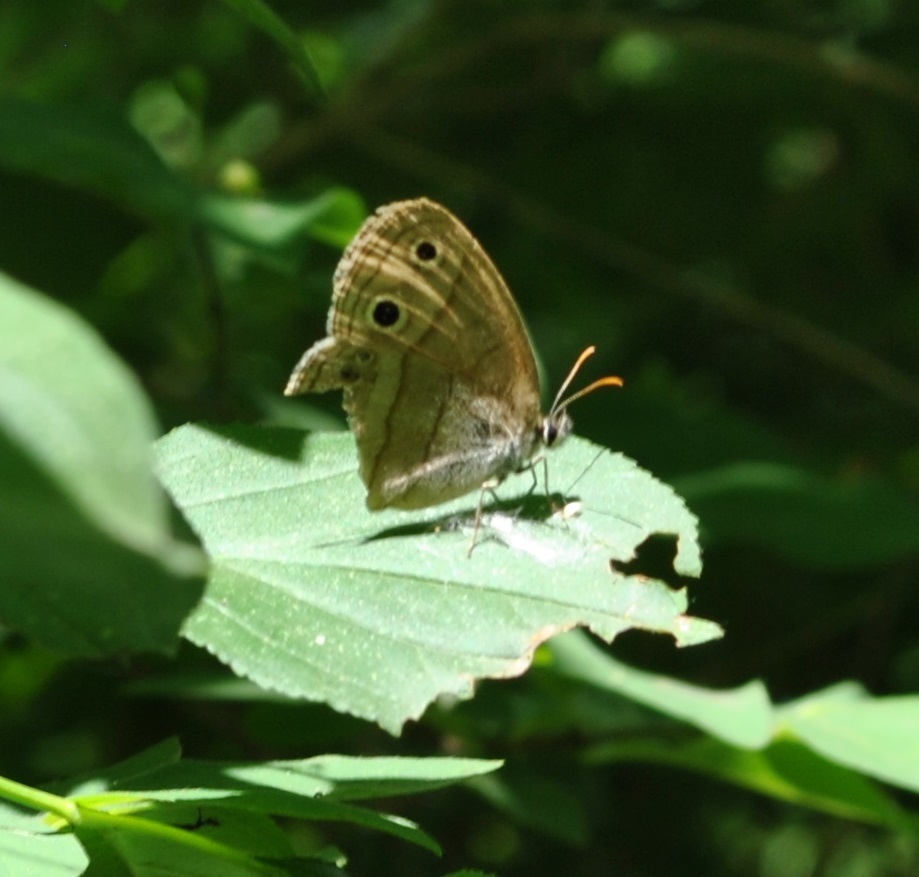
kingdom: Animalia
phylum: Arthropoda
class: Insecta
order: Lepidoptera
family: Nymphalidae
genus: Euptychia
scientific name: Euptychia cymela
